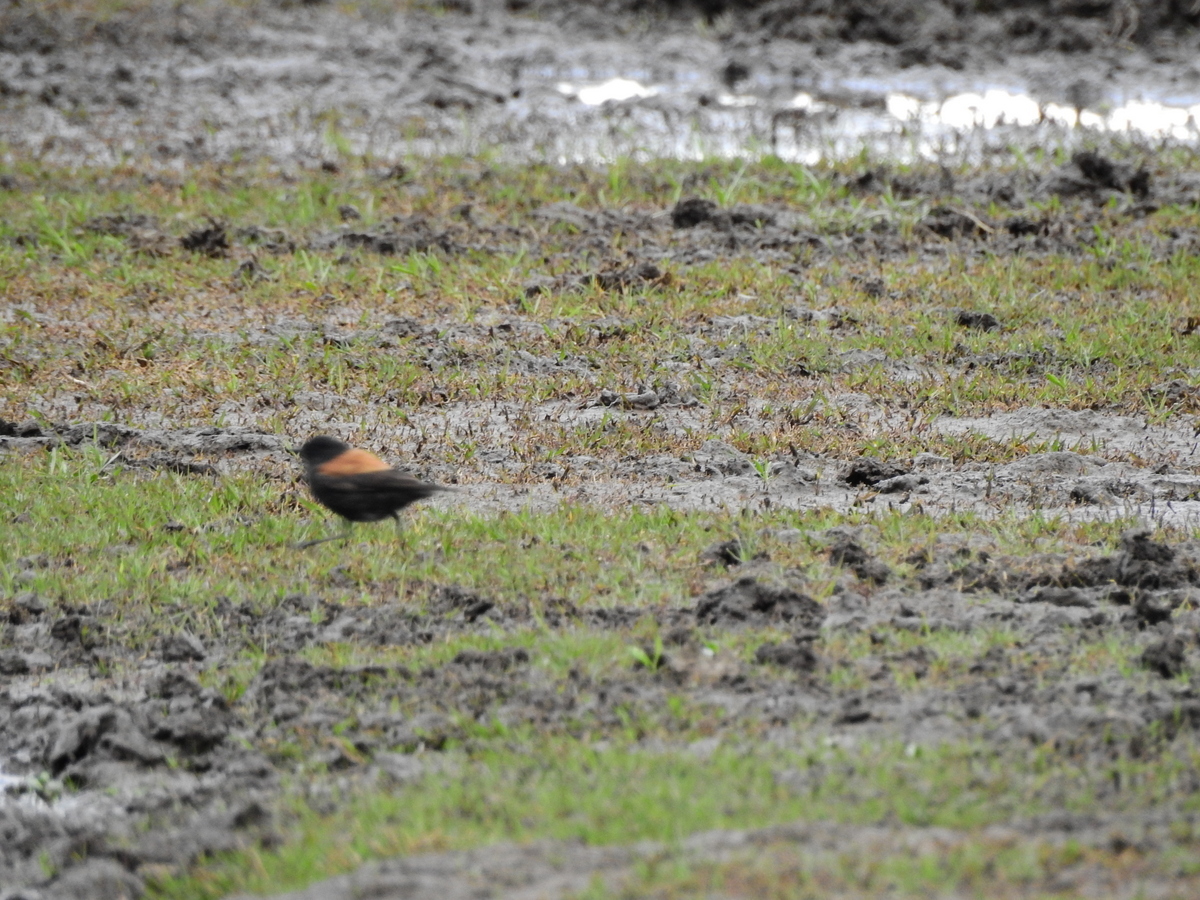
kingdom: Animalia
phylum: Chordata
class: Aves
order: Passeriformes
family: Tyrannidae
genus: Lessonia
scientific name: Lessonia rufa
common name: Austral negrito
